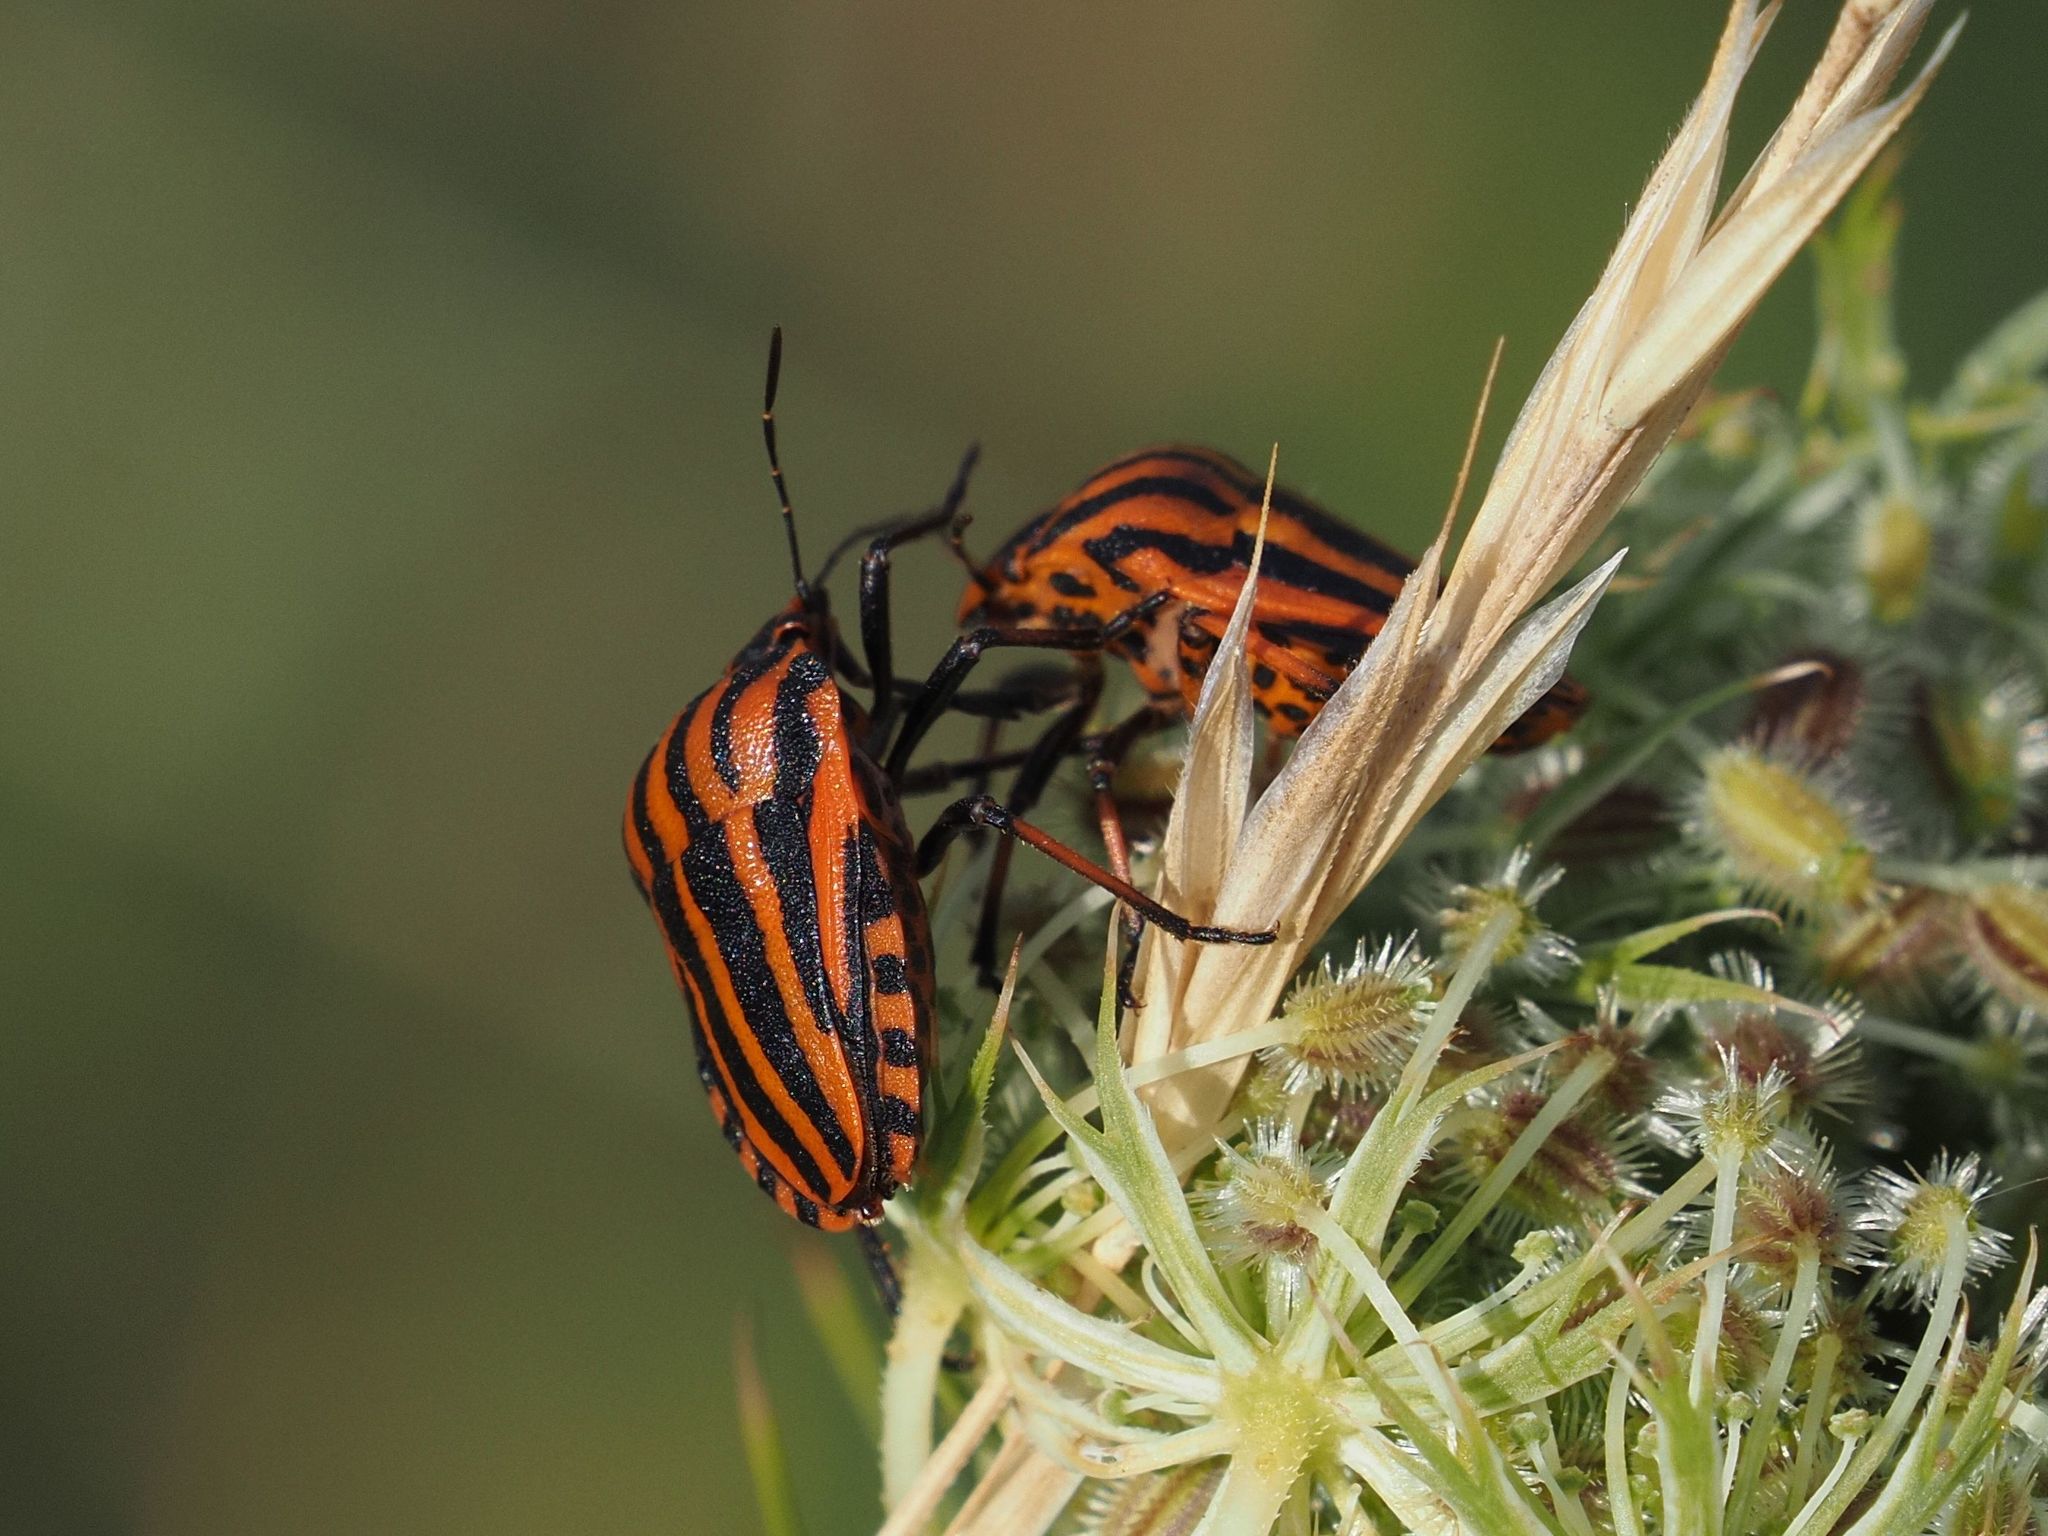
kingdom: Animalia
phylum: Arthropoda
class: Insecta
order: Hemiptera
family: Pentatomidae
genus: Graphosoma
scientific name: Graphosoma italicum
